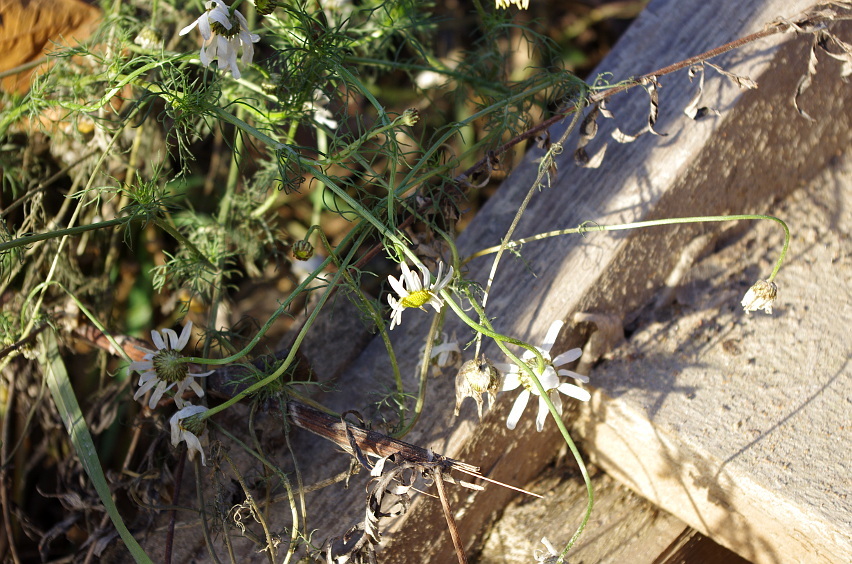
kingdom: Plantae
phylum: Tracheophyta
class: Magnoliopsida
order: Asterales
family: Asteraceae
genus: Tripleurospermum
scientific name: Tripleurospermum inodorum
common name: Scentless mayweed
